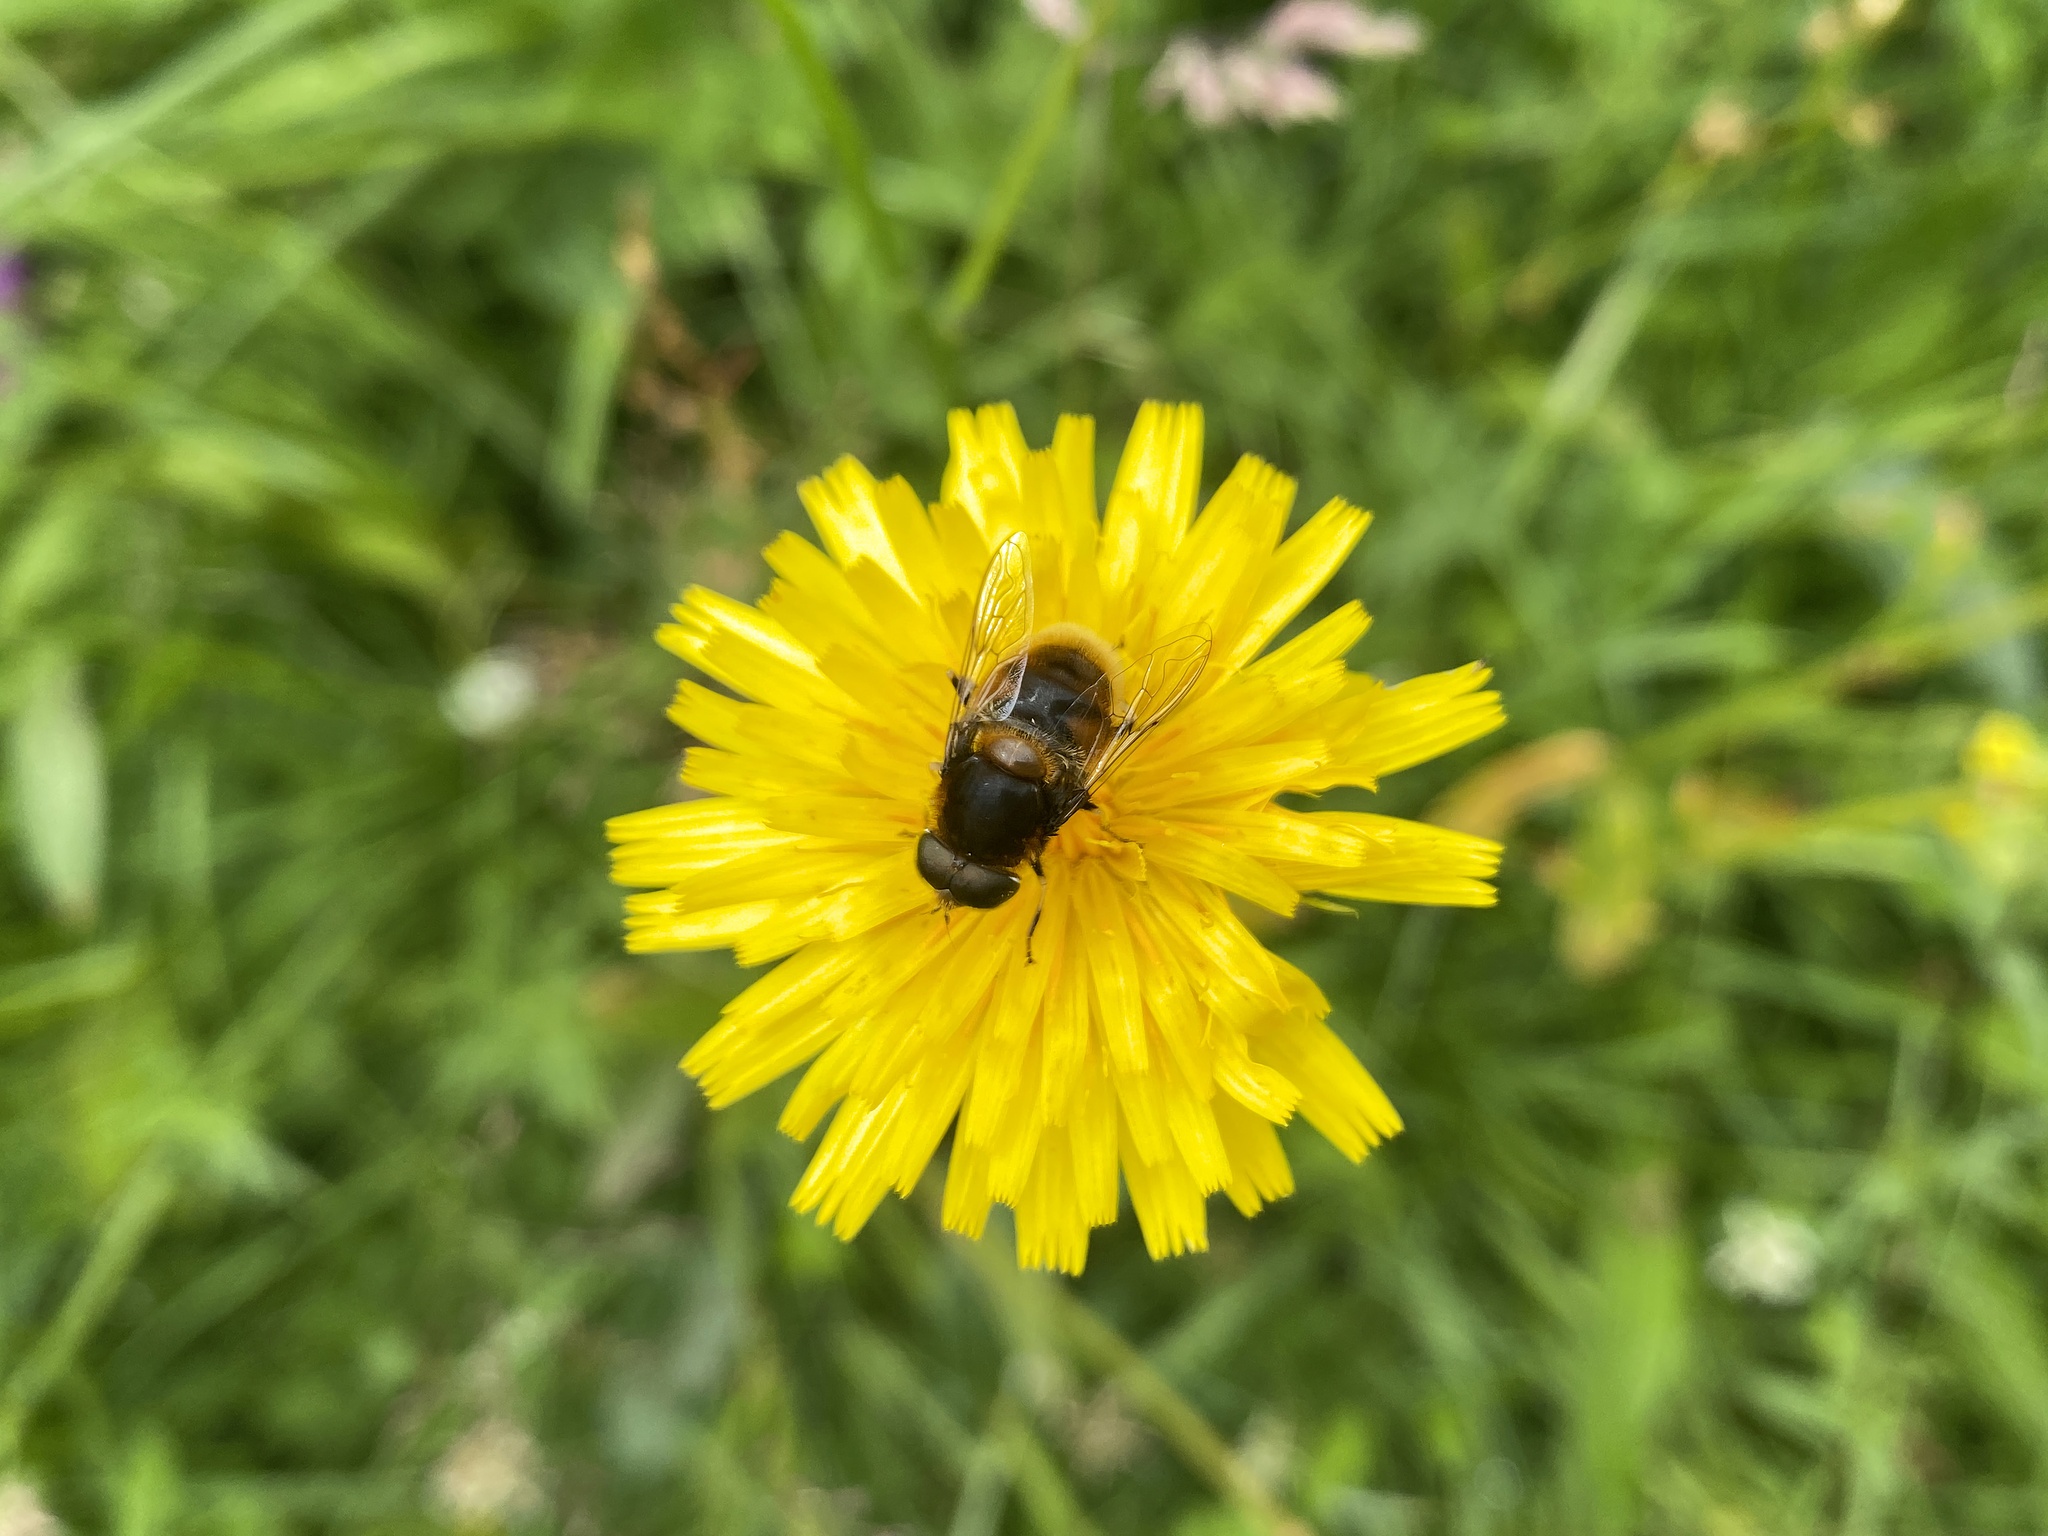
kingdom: Animalia
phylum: Arthropoda
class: Insecta
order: Diptera
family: Syrphidae
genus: Eristalis
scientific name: Eristalis intricaria
